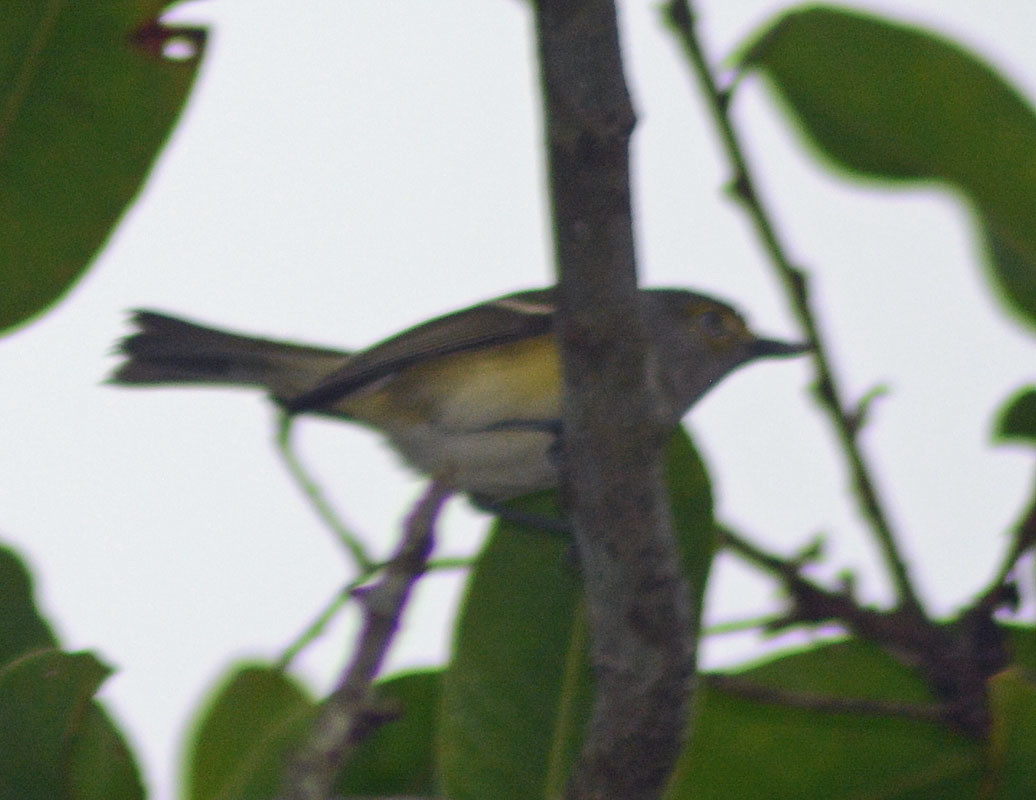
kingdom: Animalia
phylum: Chordata
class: Aves
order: Passeriformes
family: Vireonidae
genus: Vireo
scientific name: Vireo griseus
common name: White-eyed vireo
